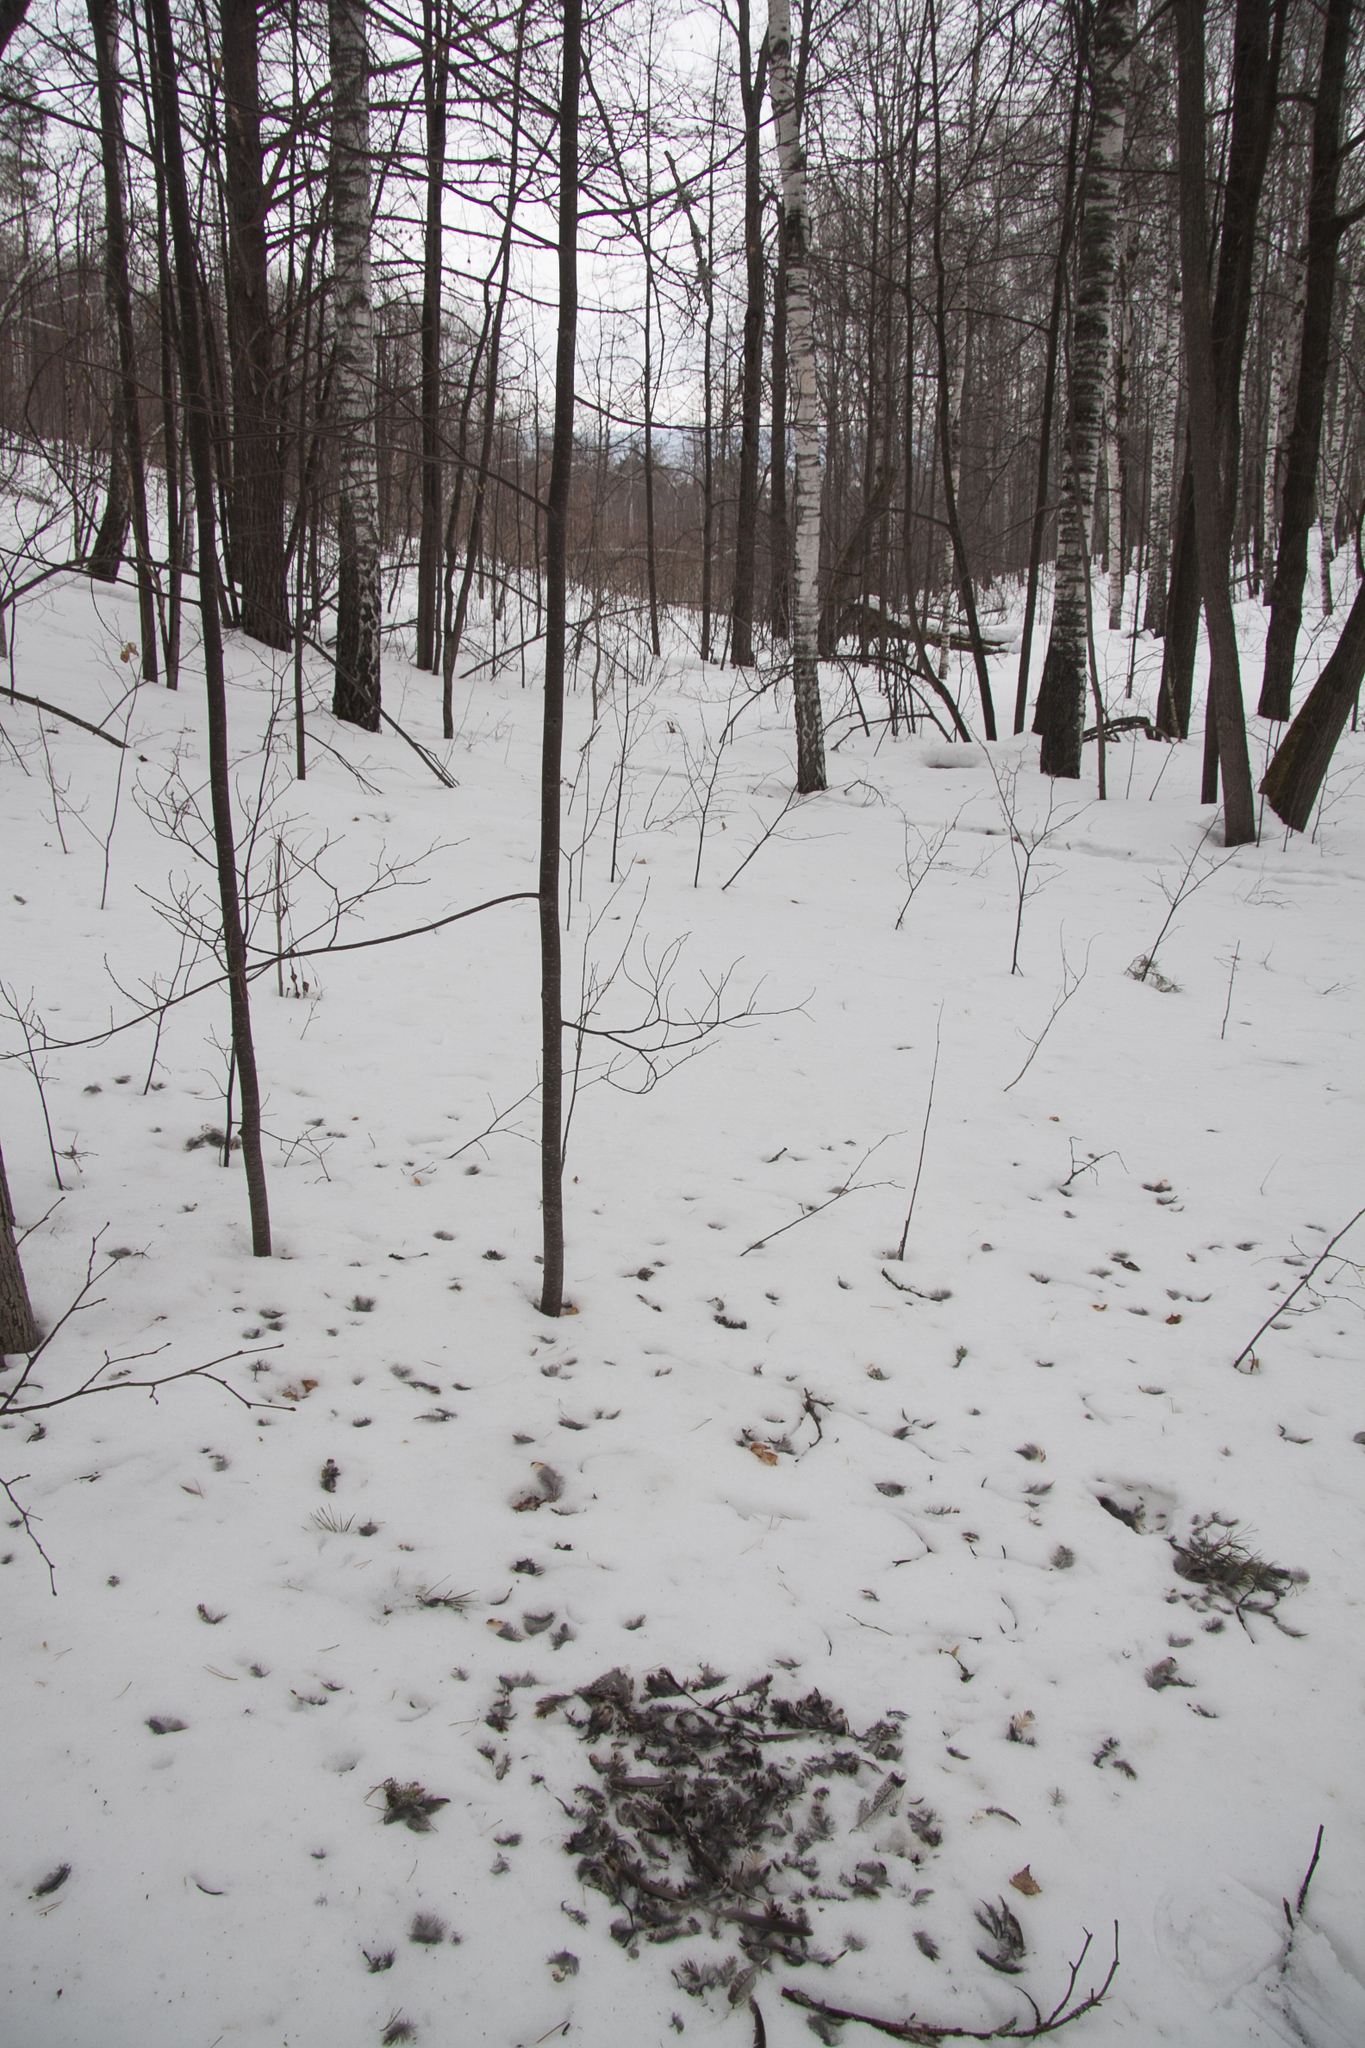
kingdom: Animalia
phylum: Chordata
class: Aves
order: Galliformes
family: Phasianidae
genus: Tetrastes
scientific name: Tetrastes bonasia
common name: Hazel grouse
